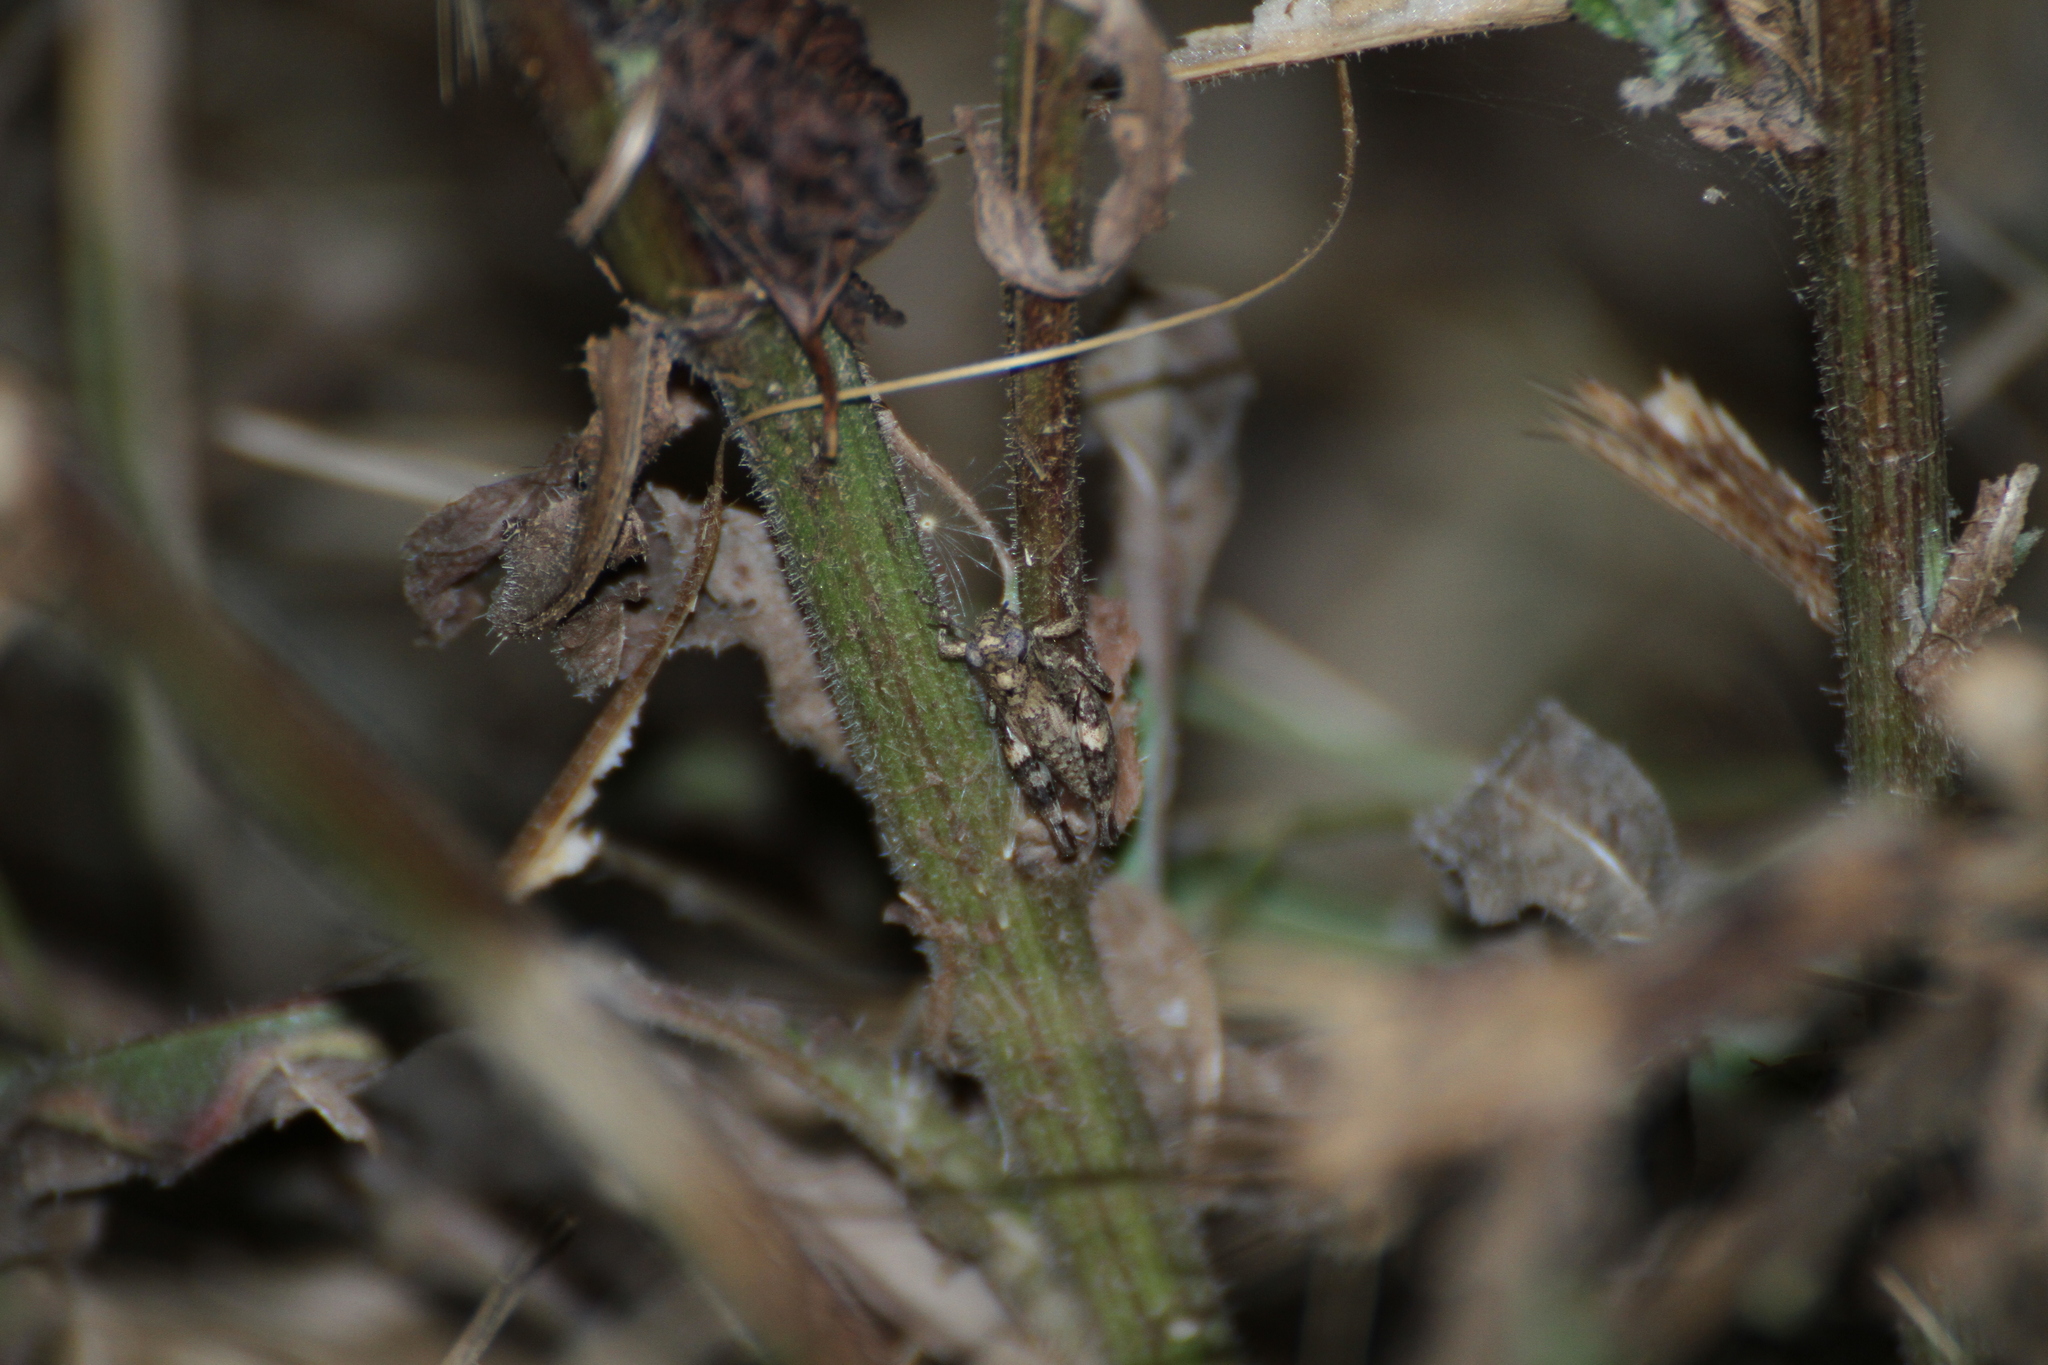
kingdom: Animalia
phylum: Arthropoda
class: Insecta
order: Orthoptera
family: Acrididae
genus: Pezotettix
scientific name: Pezotettix giornae
